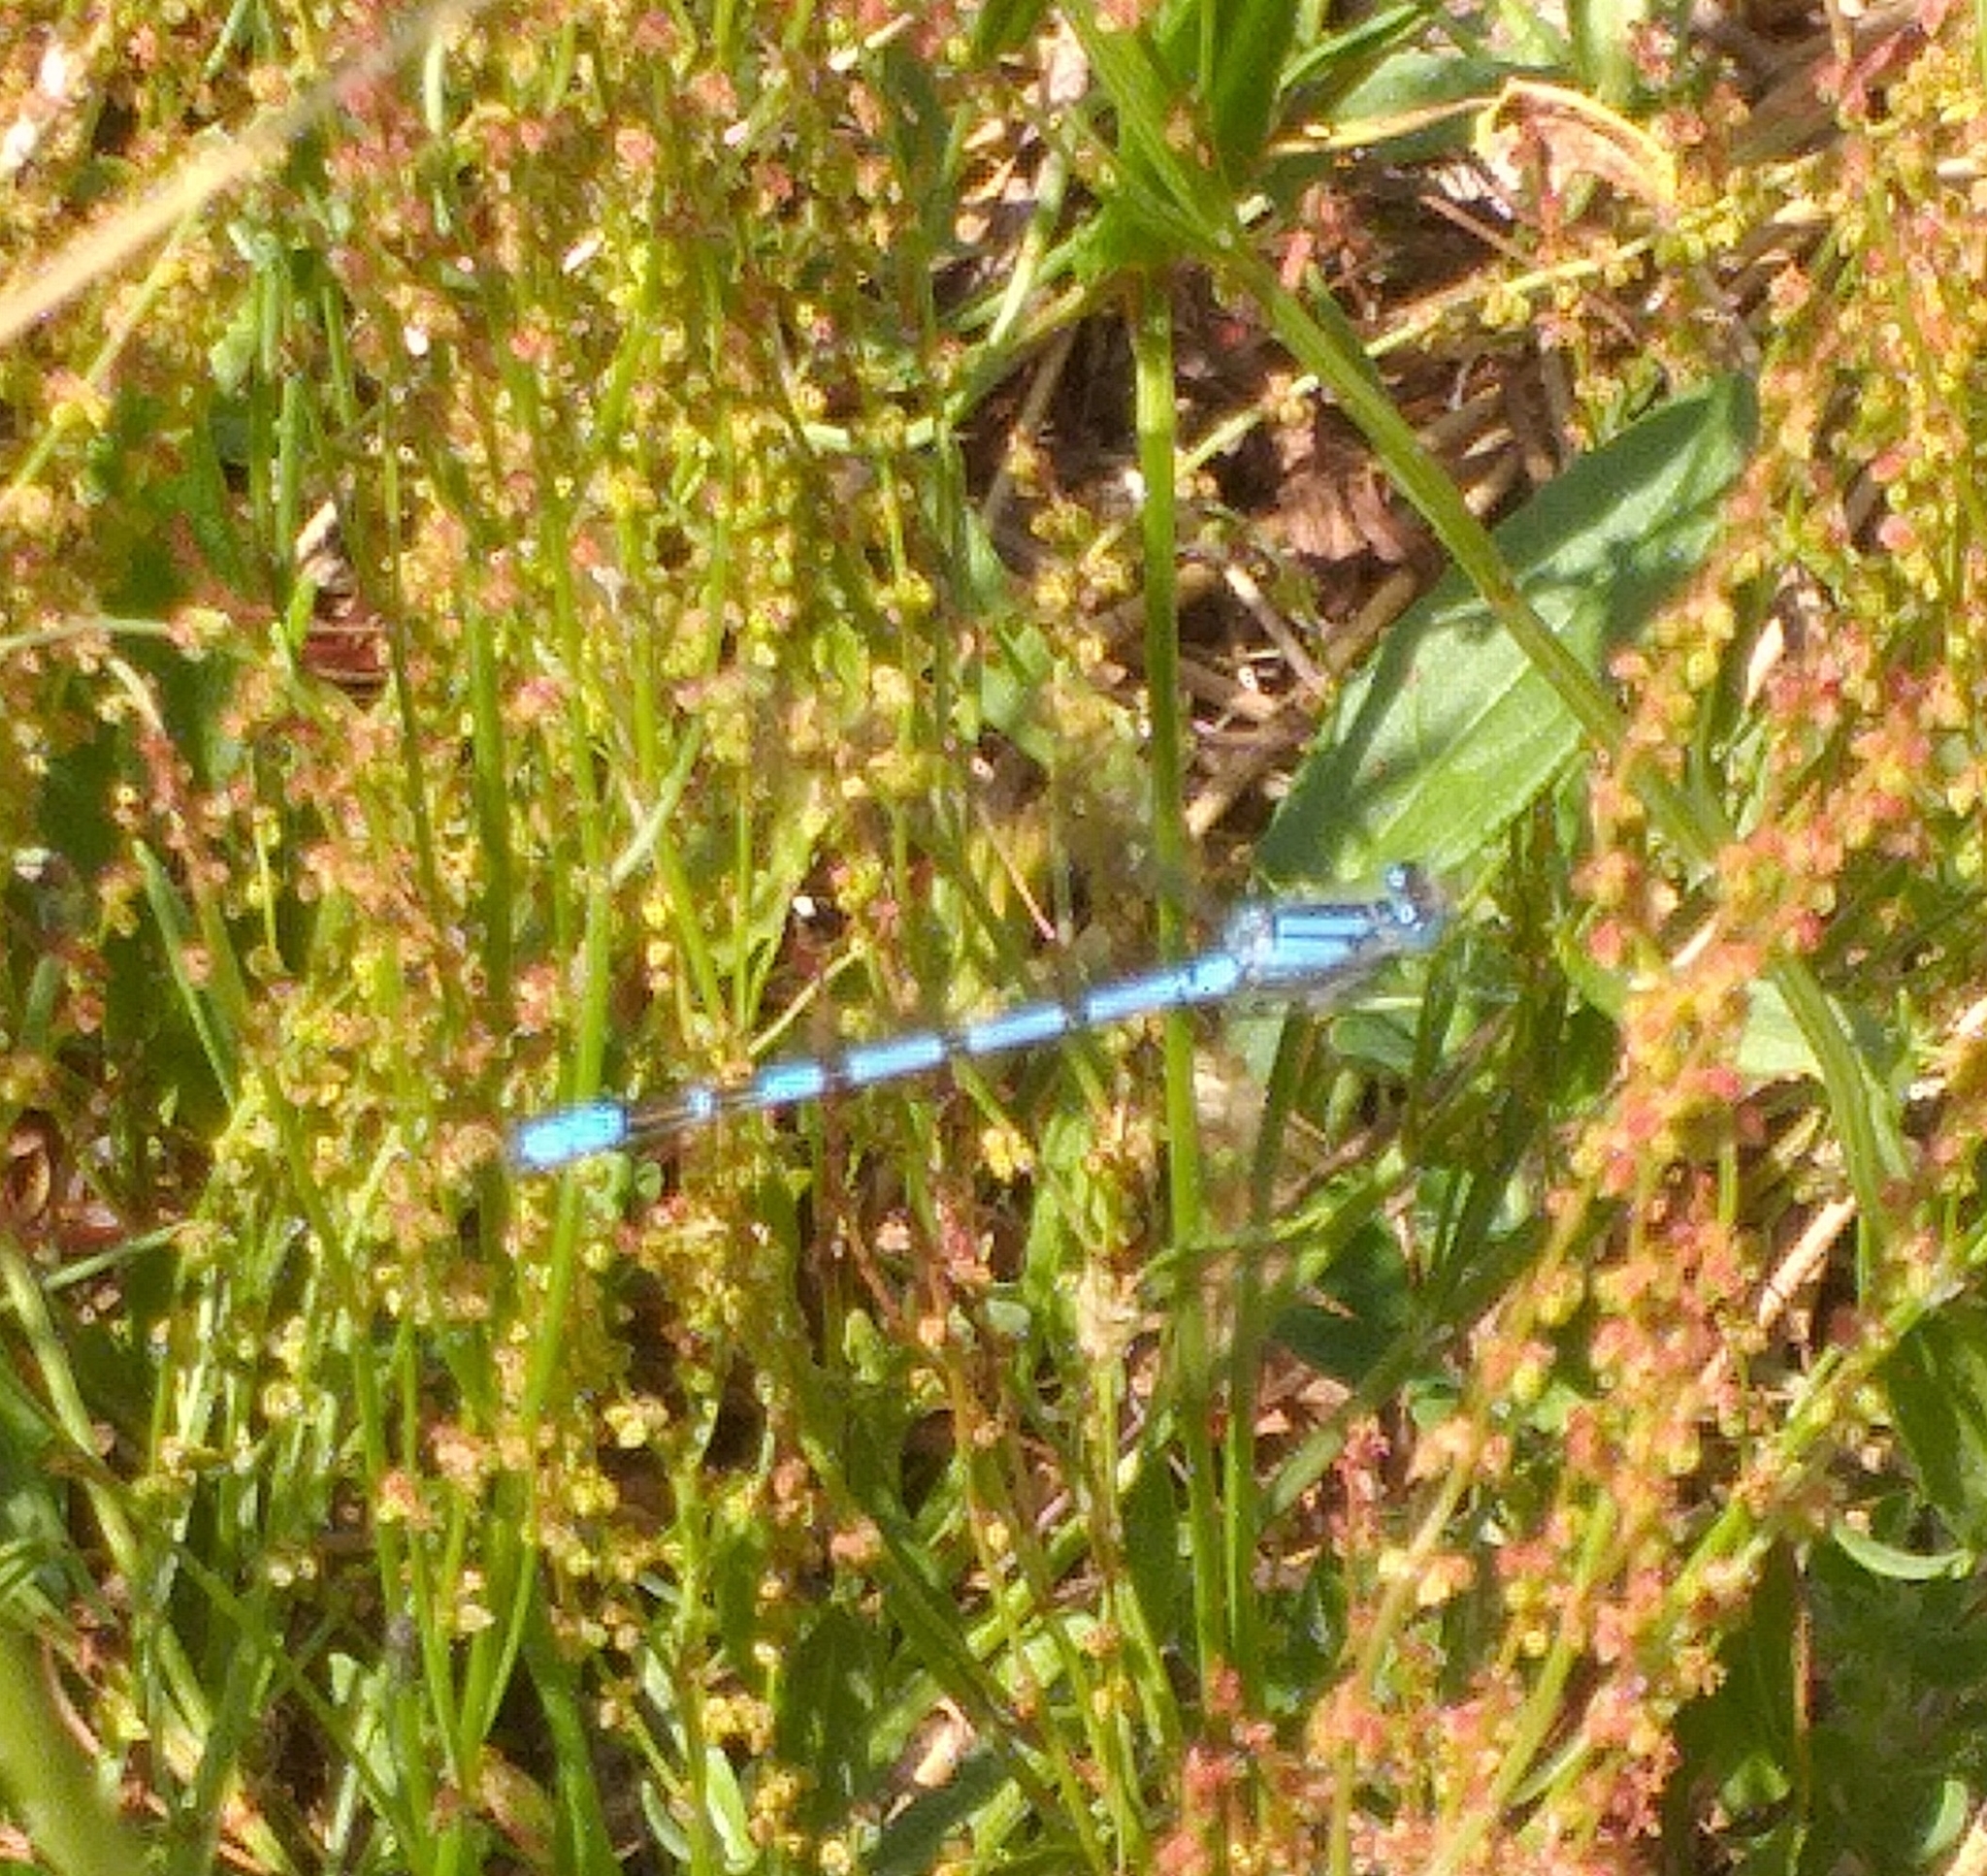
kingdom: Animalia
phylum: Arthropoda
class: Insecta
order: Odonata
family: Coenagrionidae
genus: Enallagma
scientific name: Enallagma cyathigerum
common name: Common blue damselfly
